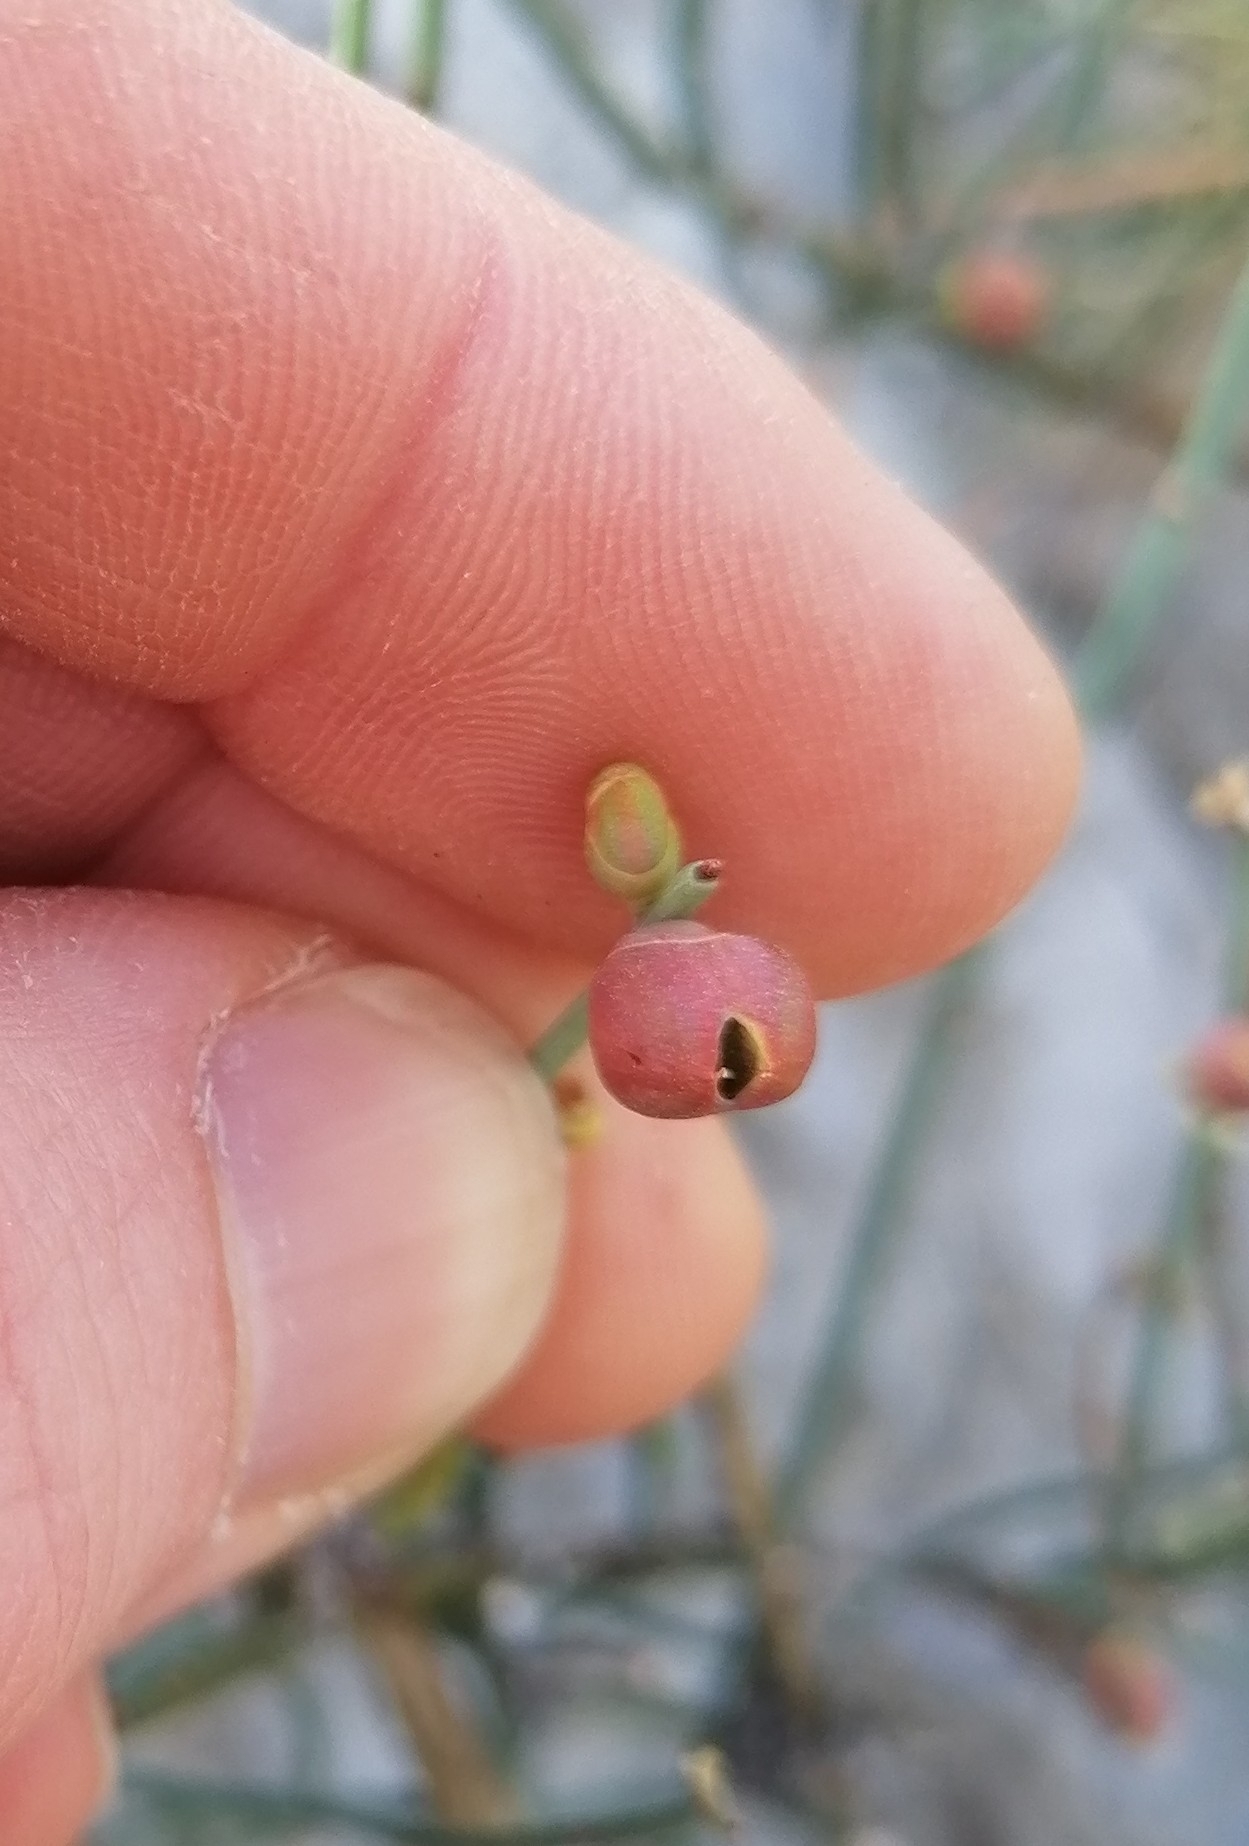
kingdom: Plantae
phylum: Tracheophyta
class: Gnetopsida
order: Ephedrales
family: Ephedraceae
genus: Ephedra
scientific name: Ephedra foeminea
